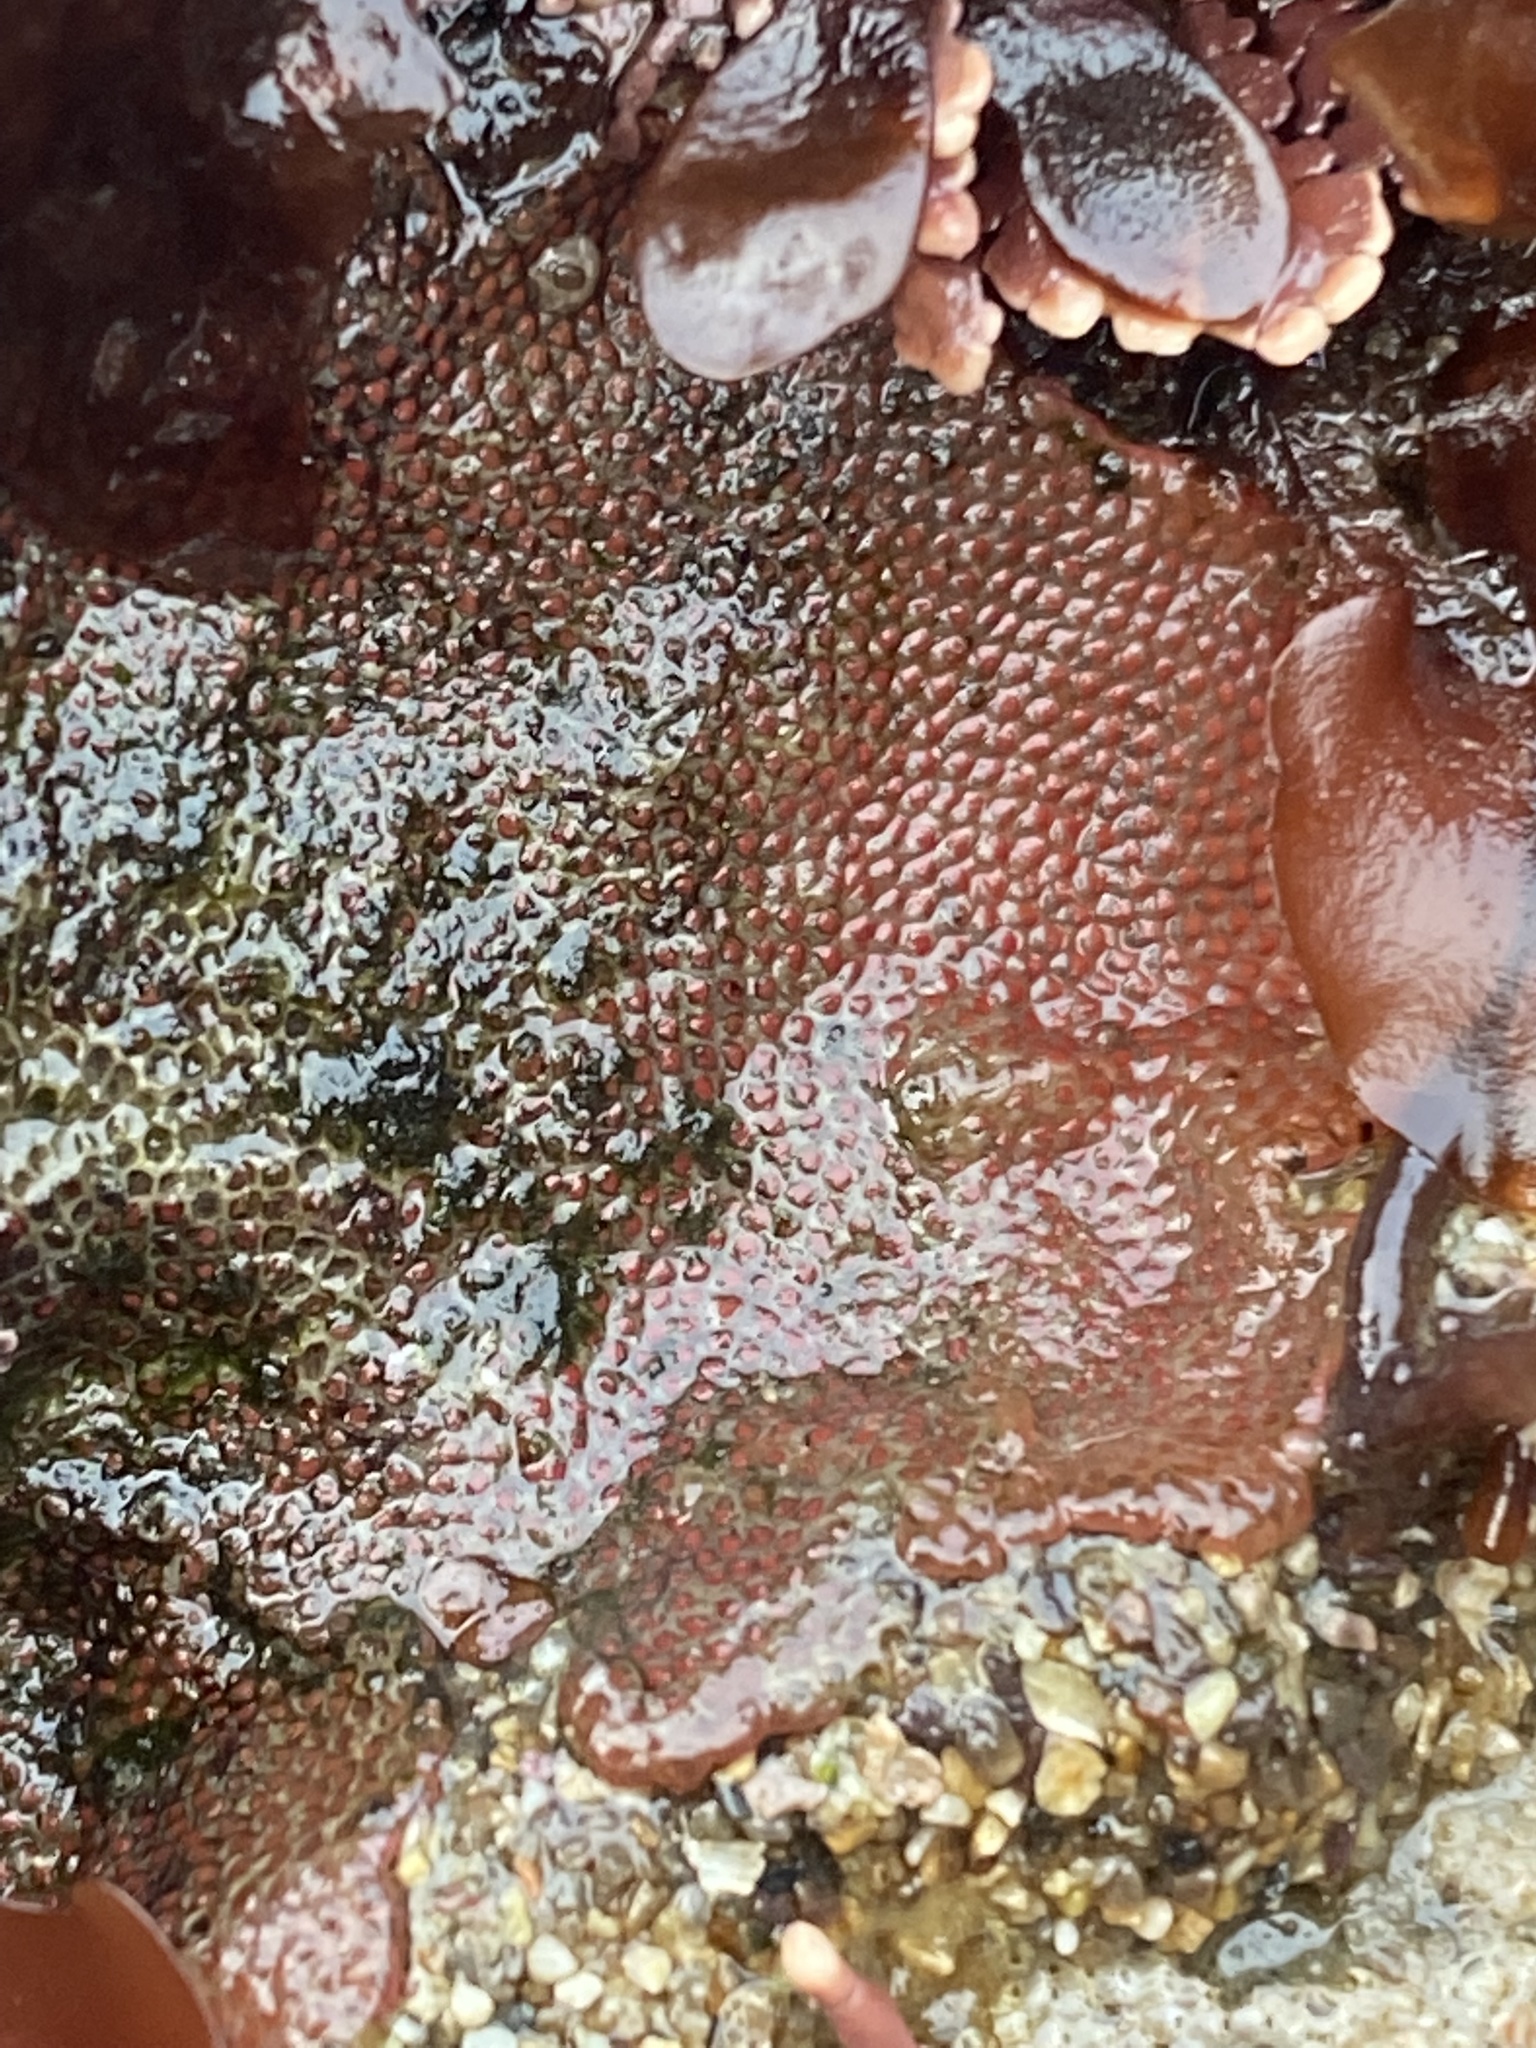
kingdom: Animalia
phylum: Bryozoa
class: Gymnolaemata
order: Cheilostomatida
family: Eurystomellidae
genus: Integripelta
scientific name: Integripelta bilabiata
